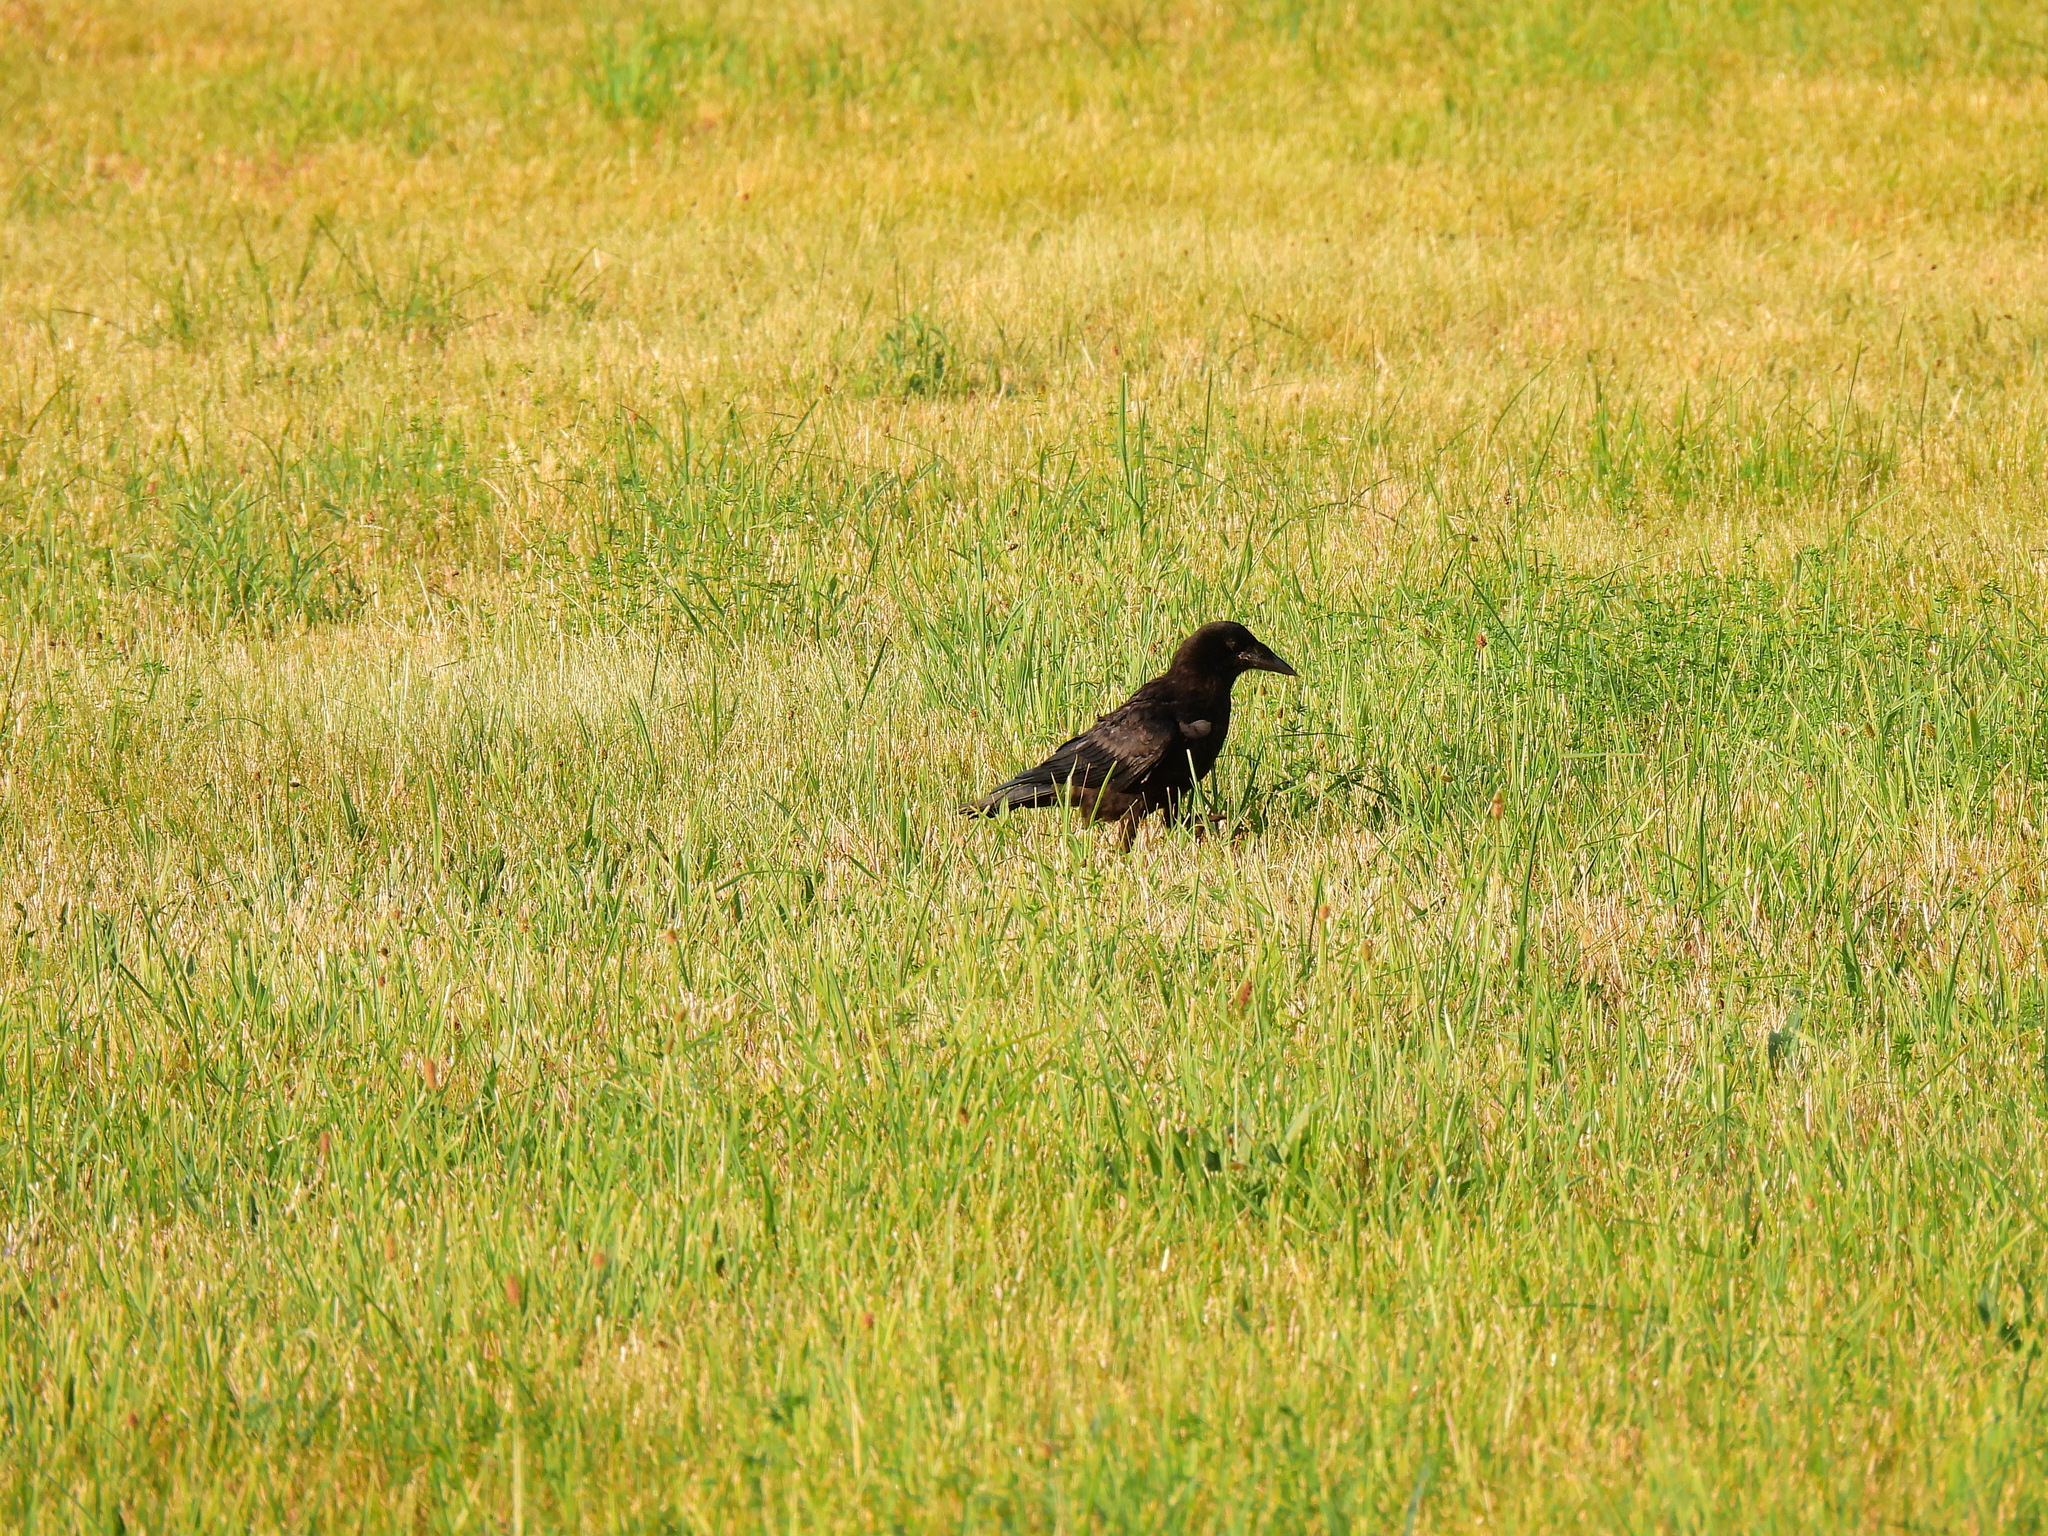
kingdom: Animalia
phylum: Chordata
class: Aves
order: Passeriformes
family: Corvidae
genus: Corvus
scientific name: Corvus corone
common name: Carrion crow
